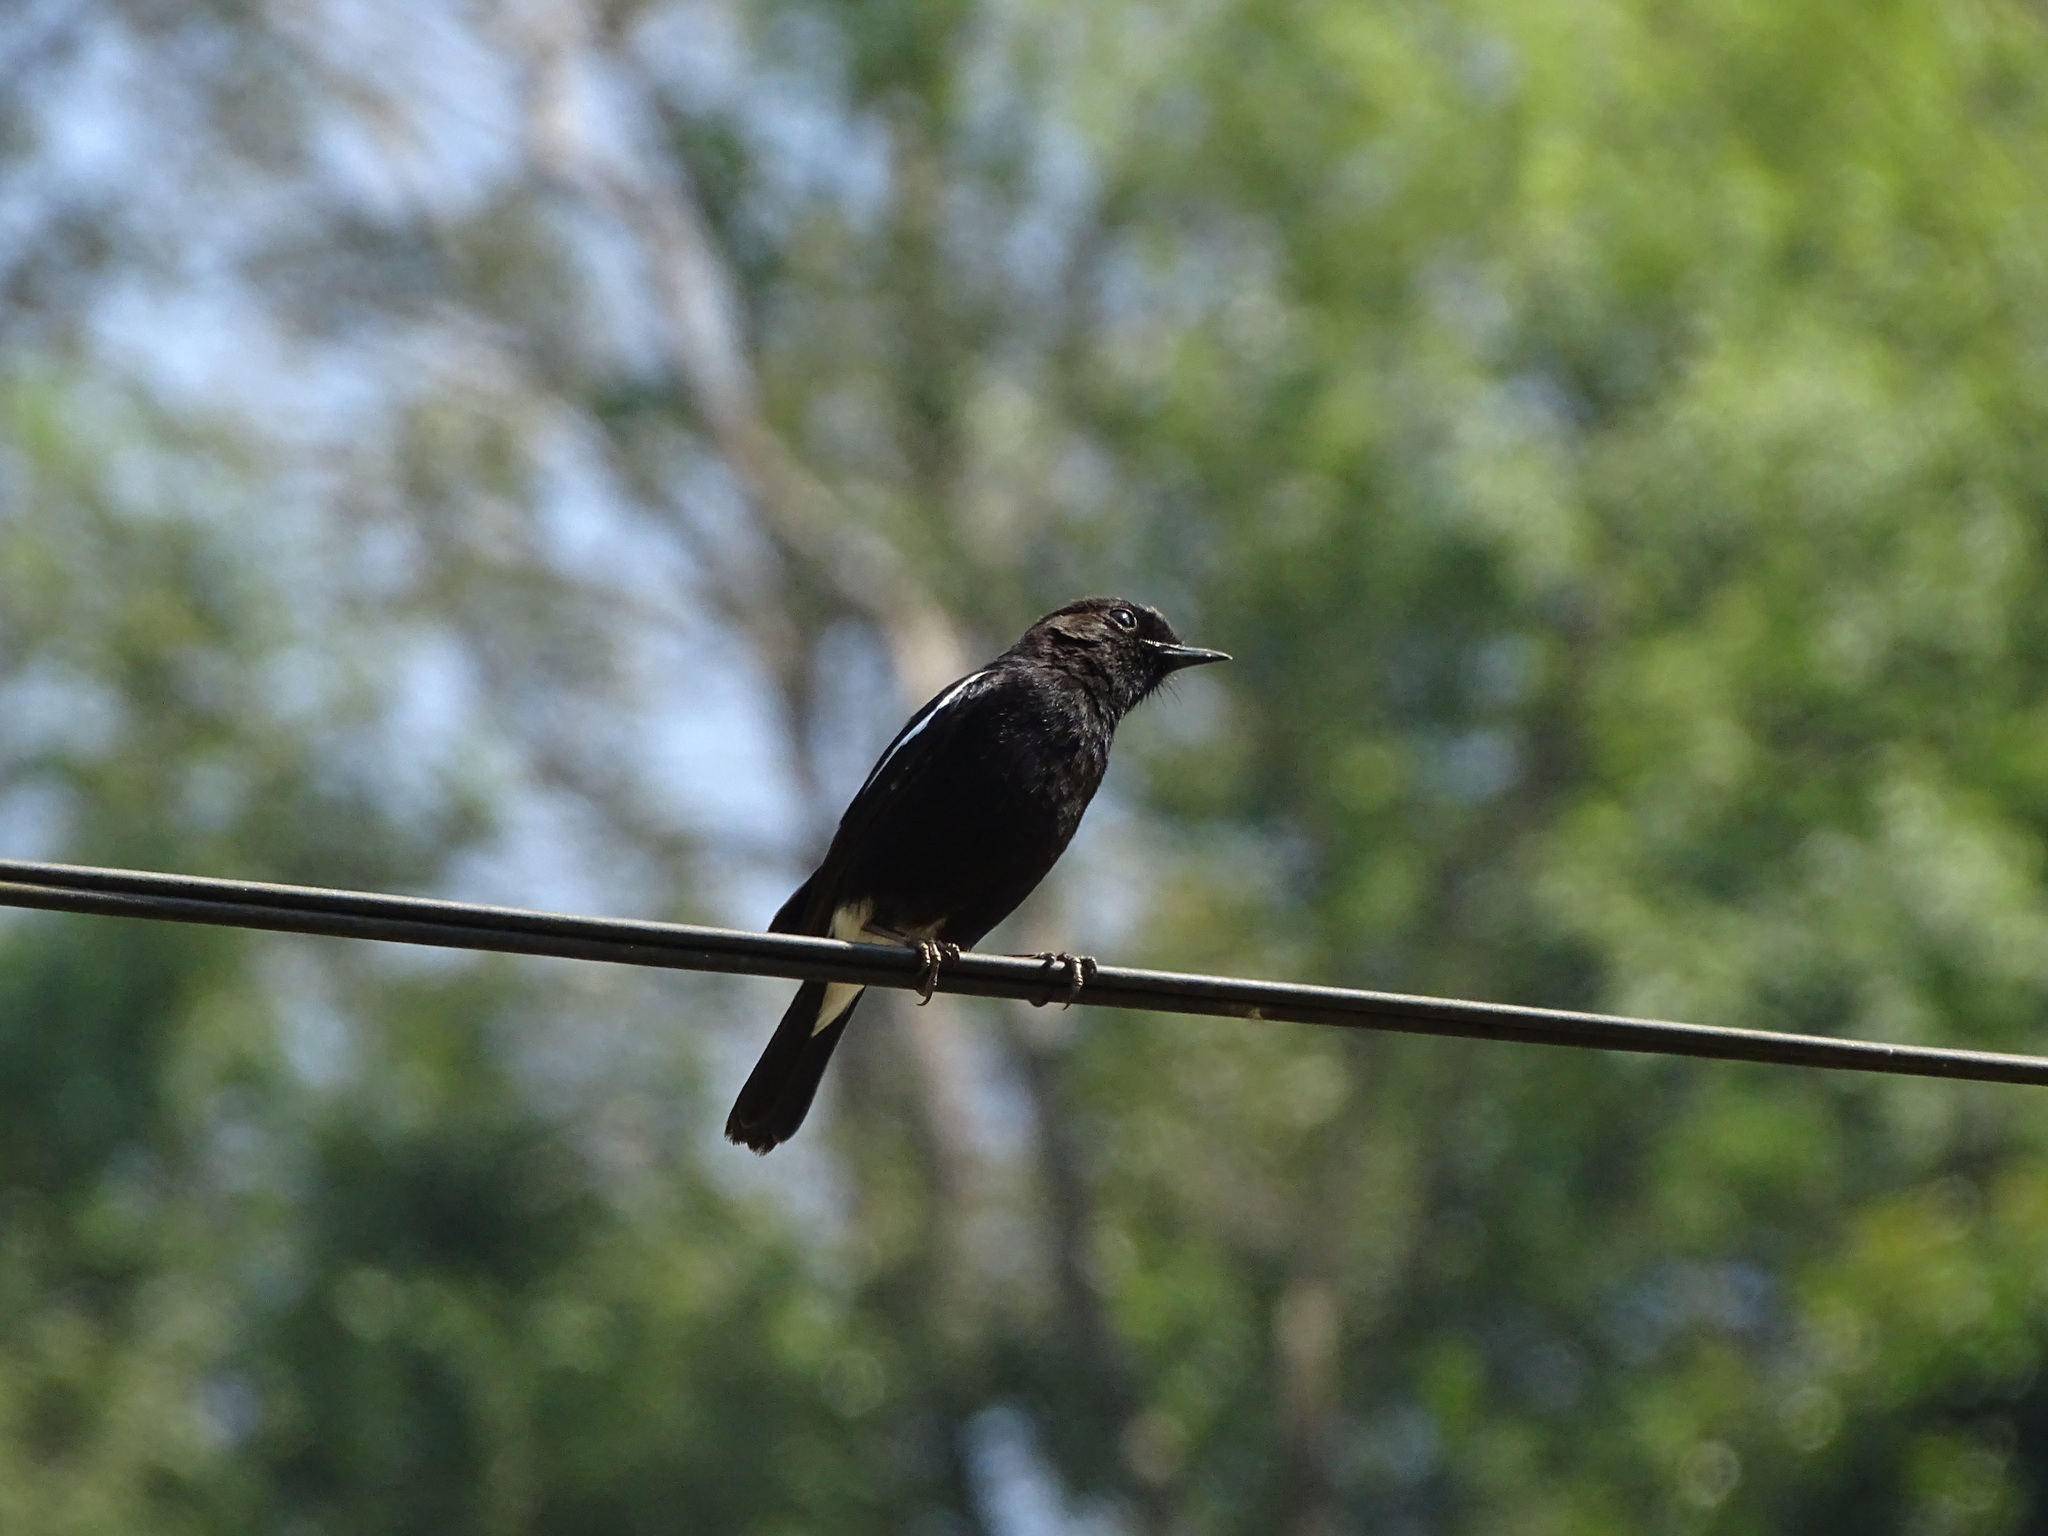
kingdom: Animalia
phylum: Chordata
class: Aves
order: Passeriformes
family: Muscicapidae
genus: Saxicola
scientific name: Saxicola caprata
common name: Pied bush chat
